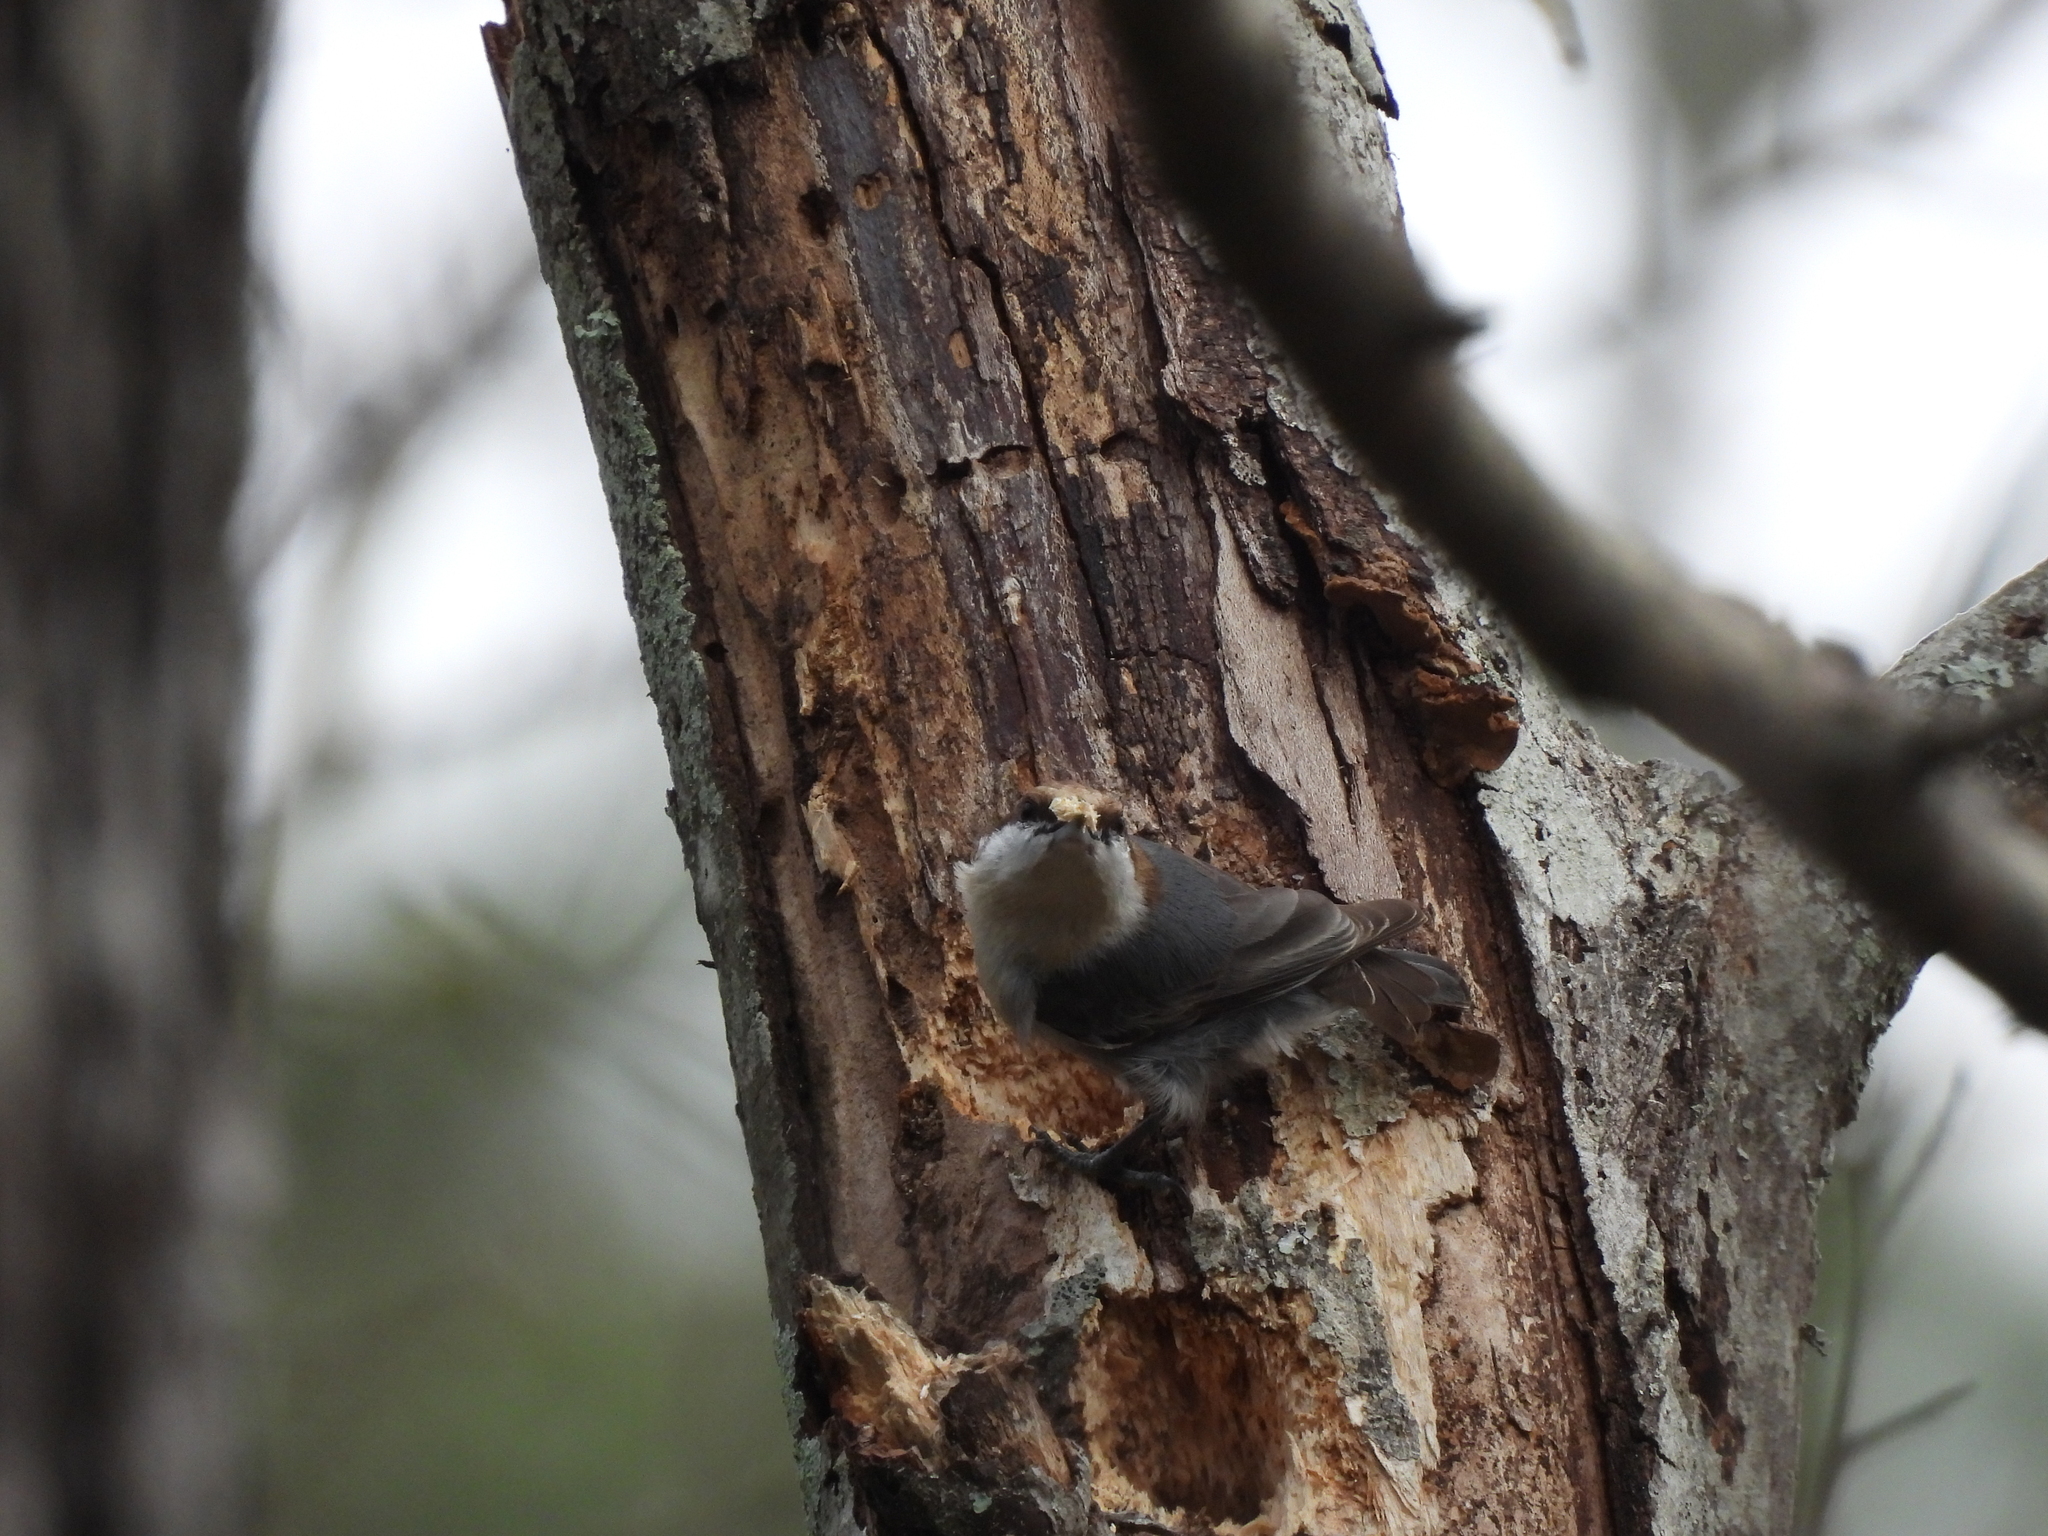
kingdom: Animalia
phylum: Chordata
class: Aves
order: Passeriformes
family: Sittidae
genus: Sitta
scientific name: Sitta pusilla
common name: Brown-headed nuthatch
